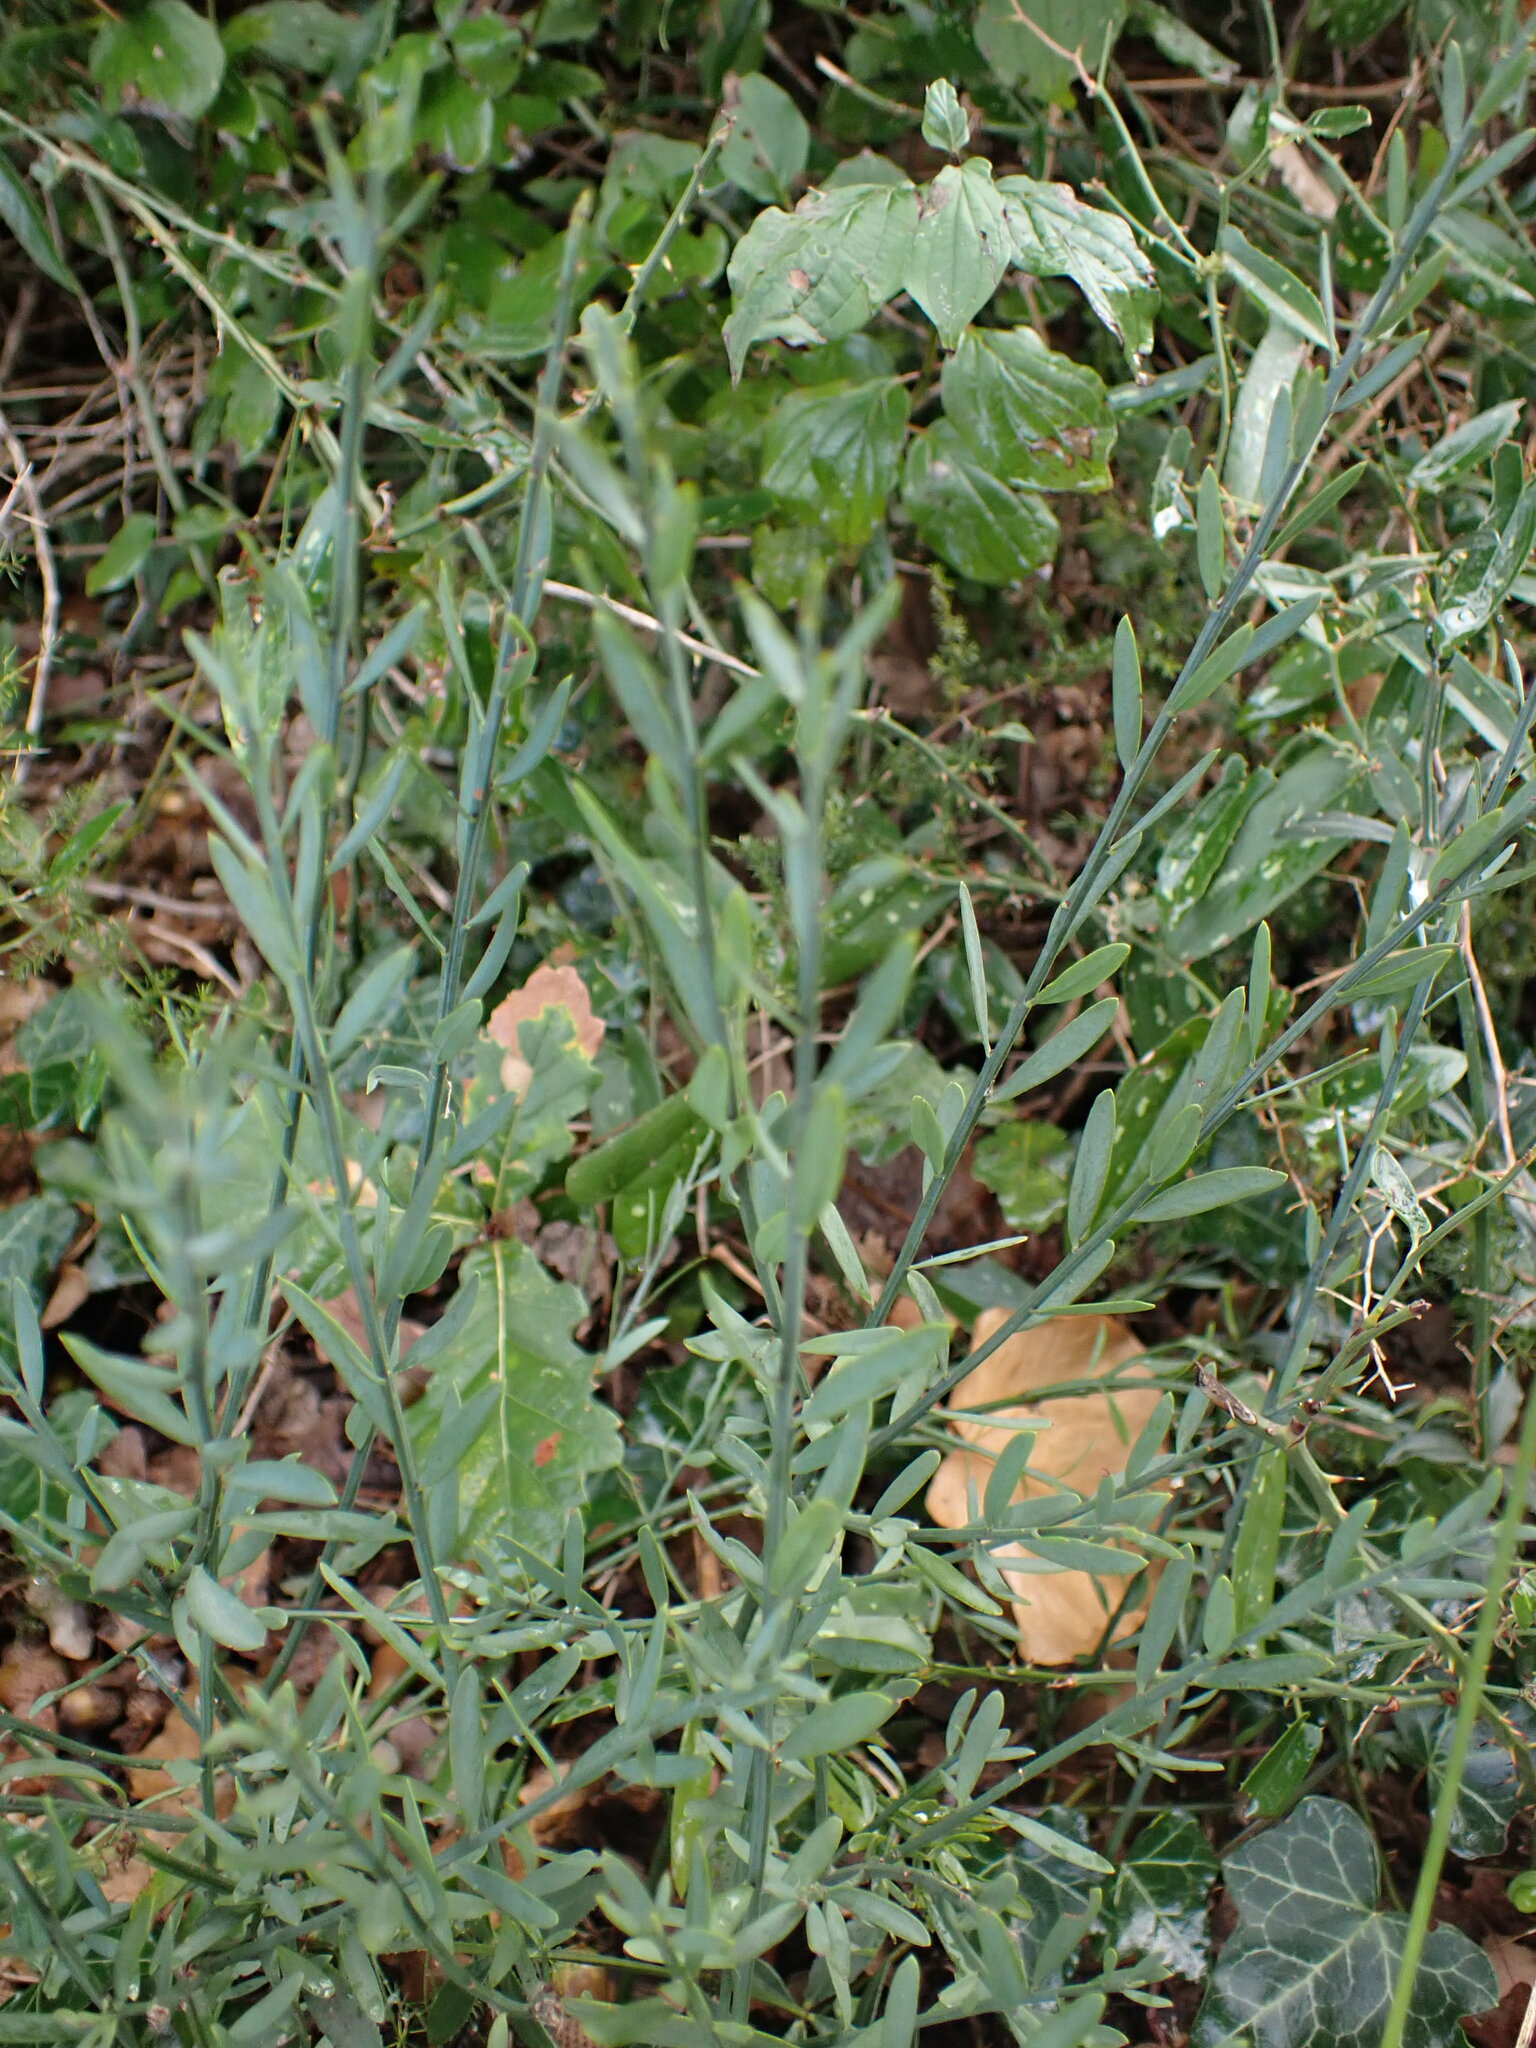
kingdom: Plantae
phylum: Tracheophyta
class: Magnoliopsida
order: Santalales
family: Santalaceae
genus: Osyris
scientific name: Osyris alba
